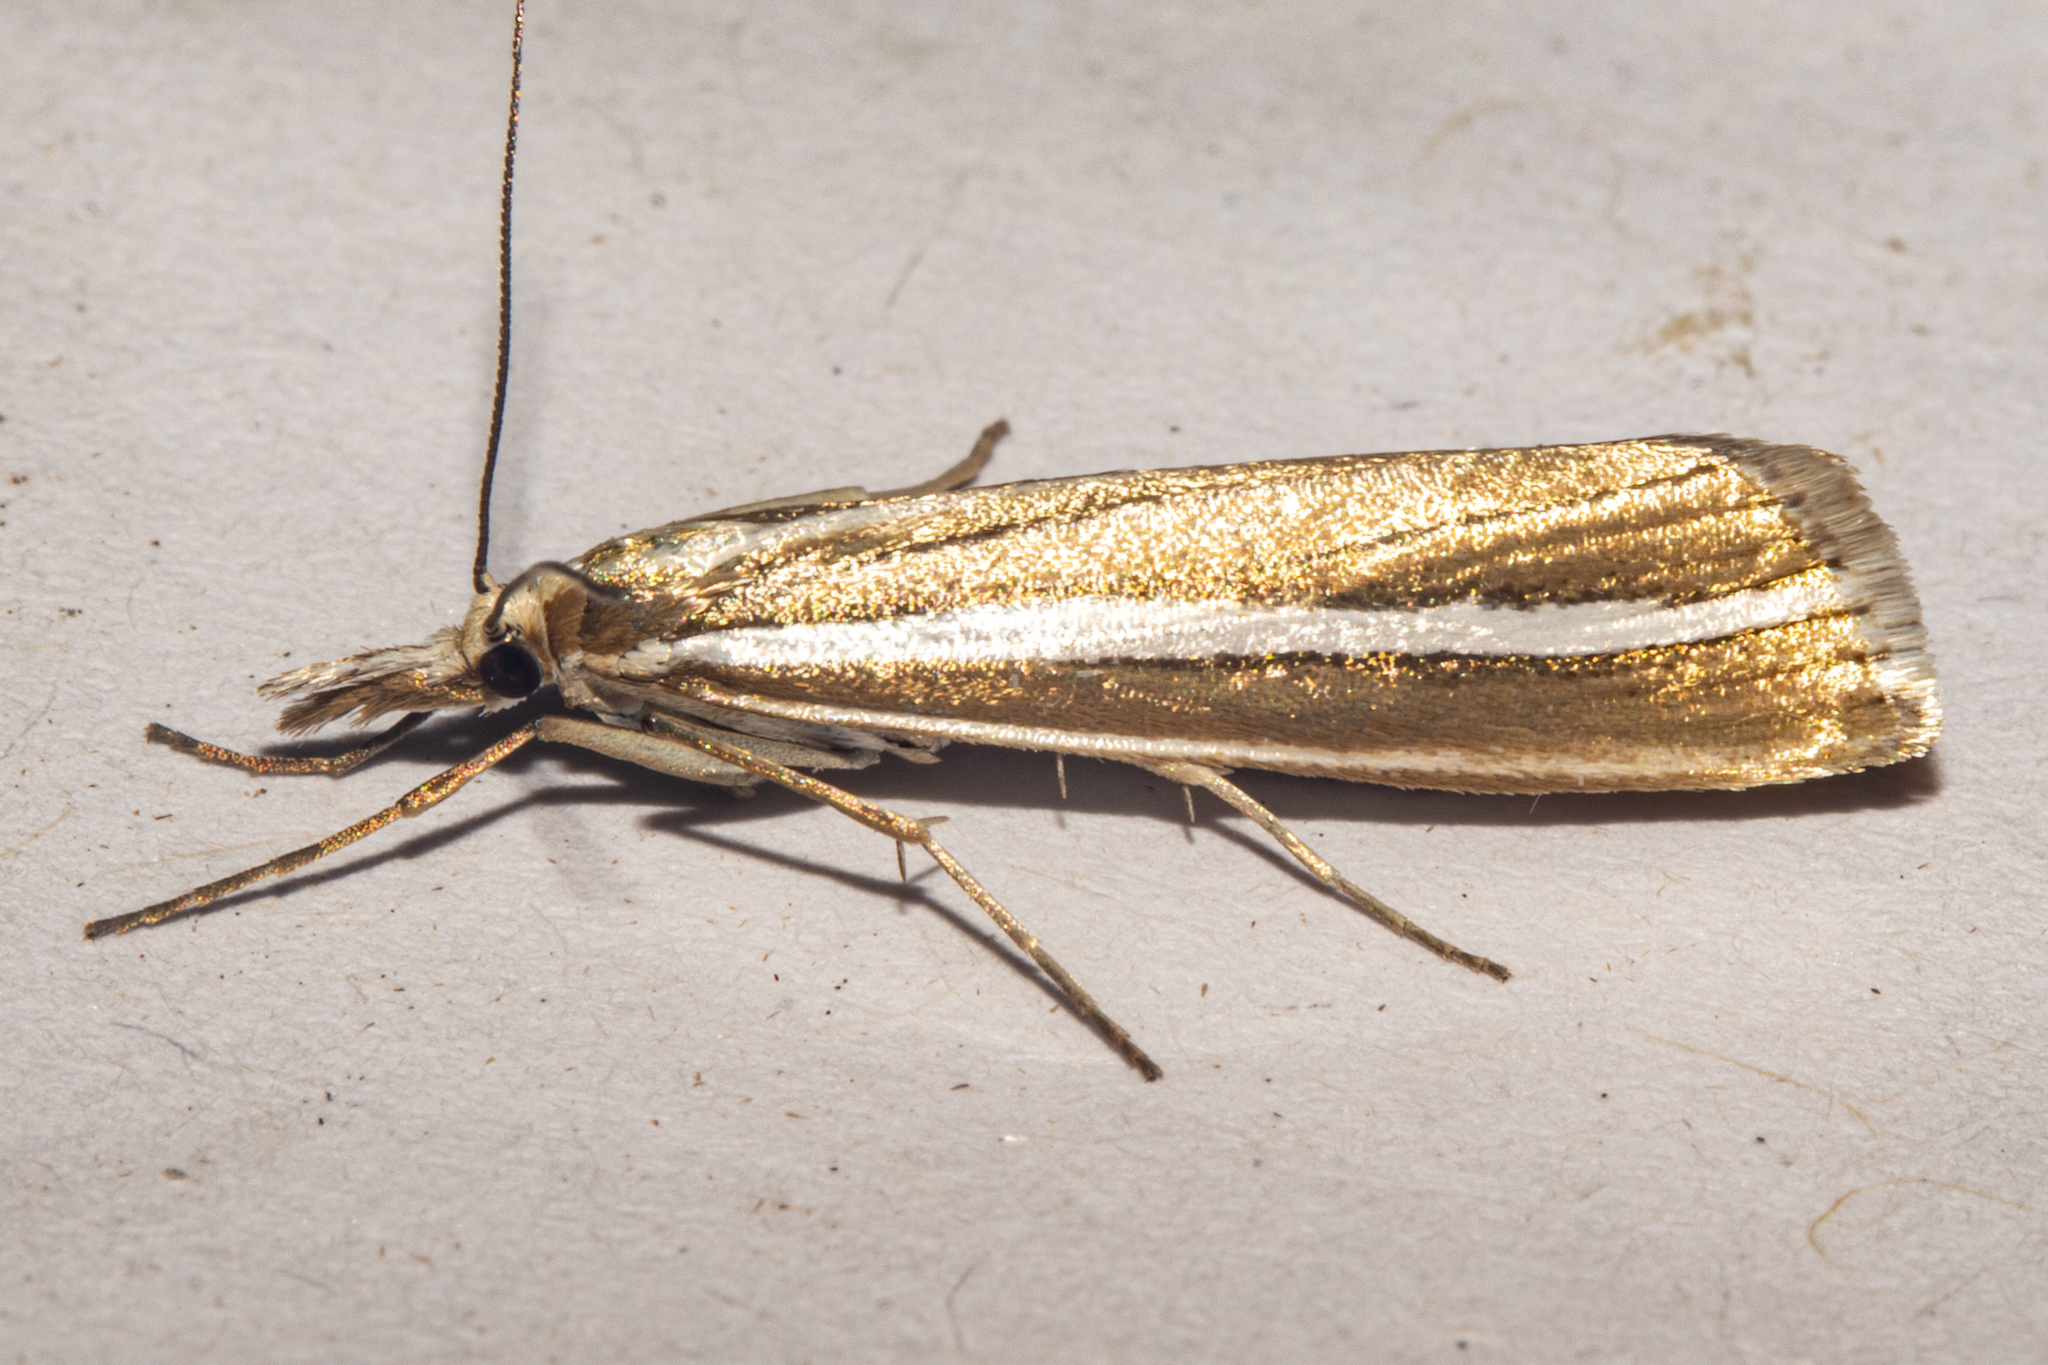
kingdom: Animalia
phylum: Arthropoda
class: Insecta
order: Lepidoptera
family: Crambidae
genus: Orocrambus
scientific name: Orocrambus philpotti
